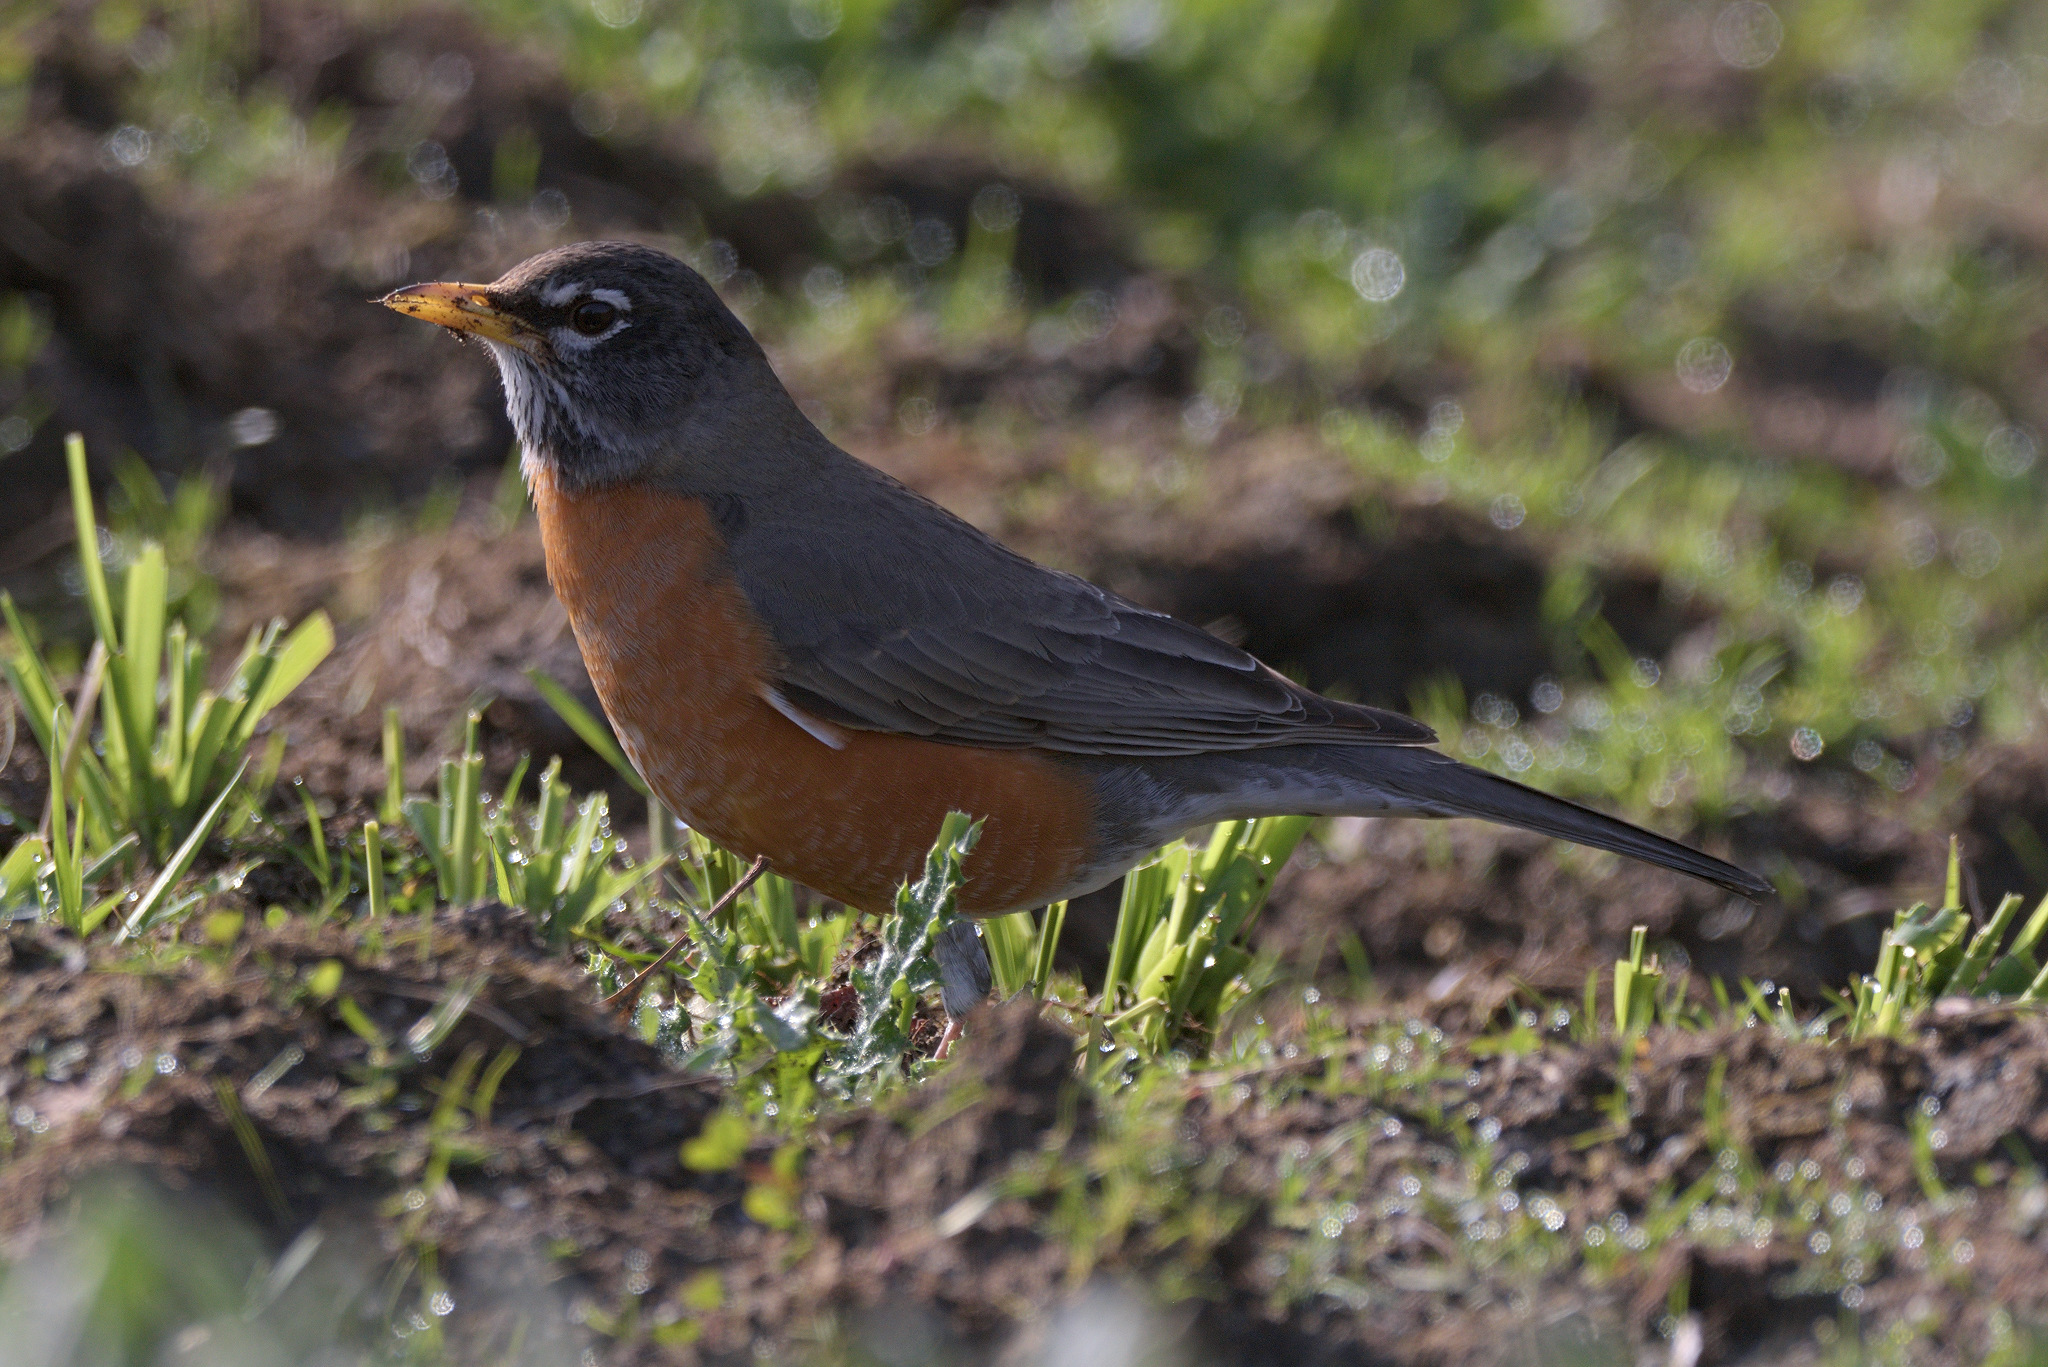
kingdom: Animalia
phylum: Chordata
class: Aves
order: Passeriformes
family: Turdidae
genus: Turdus
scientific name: Turdus migratorius
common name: American robin
